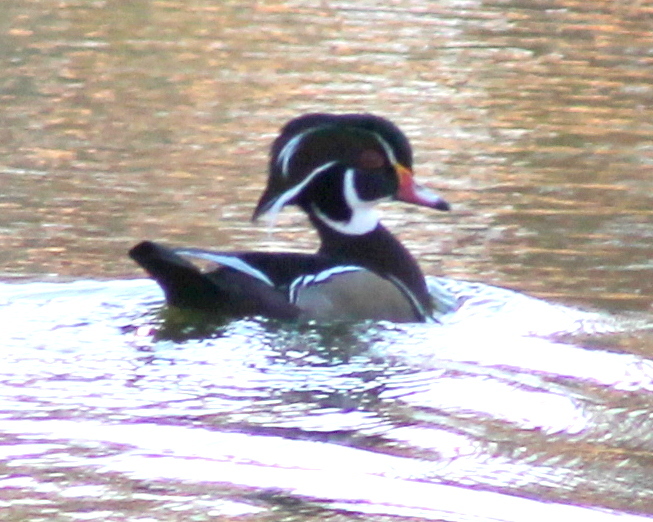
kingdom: Animalia
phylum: Chordata
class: Aves
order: Anseriformes
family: Anatidae
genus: Aix
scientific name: Aix sponsa
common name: Wood duck
